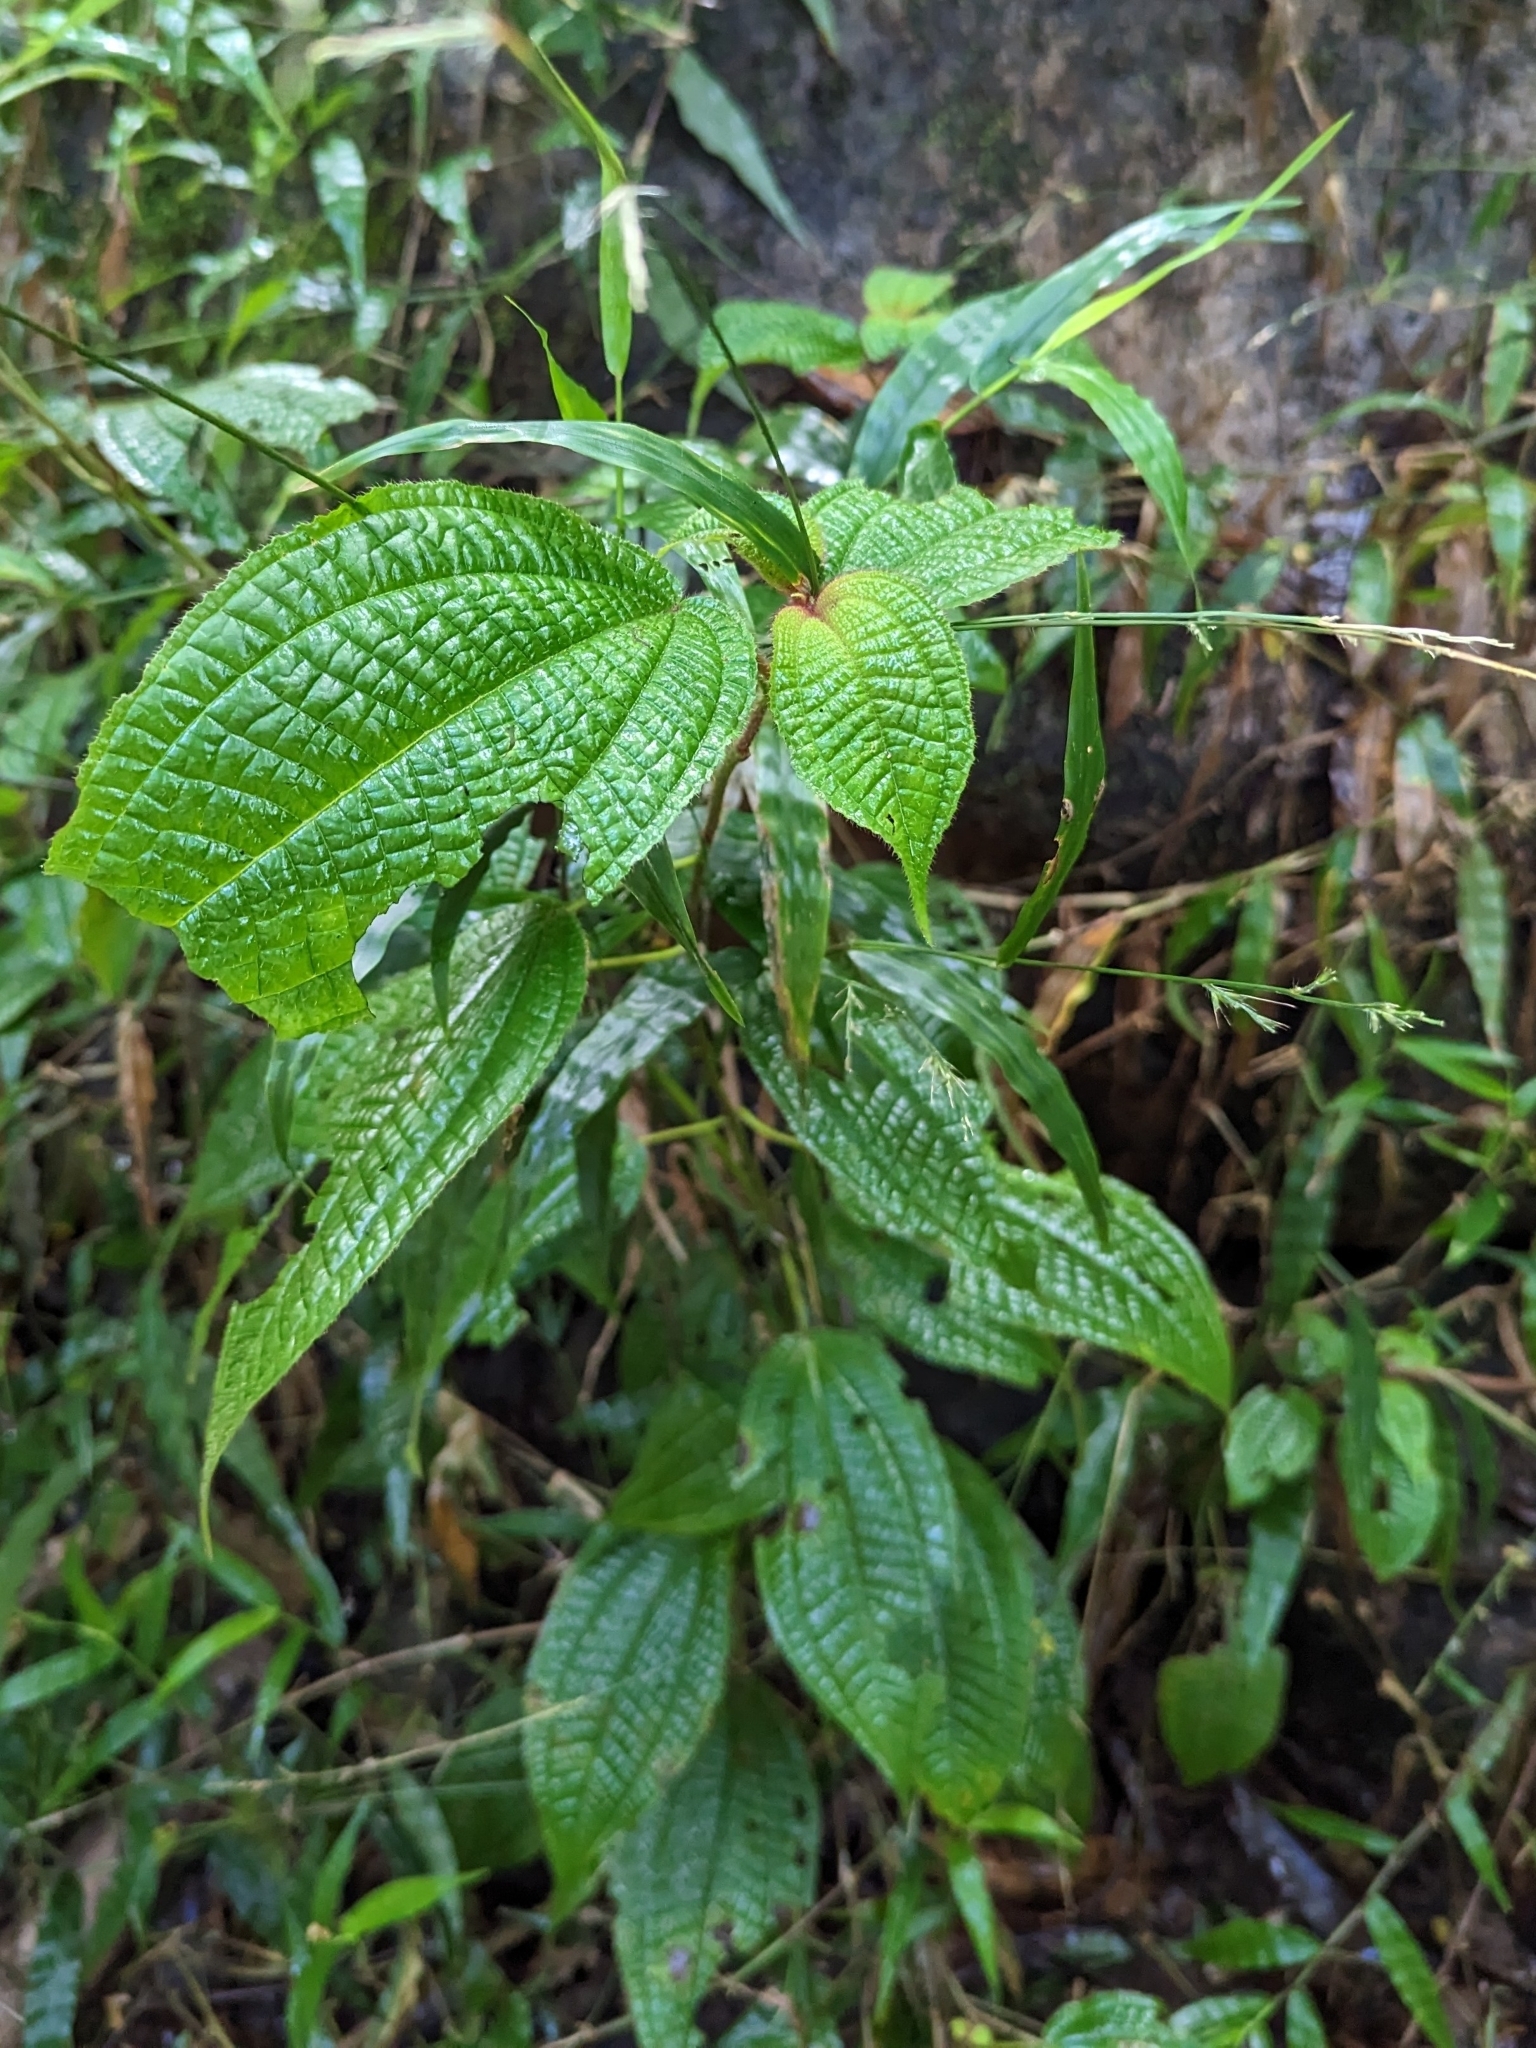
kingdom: Plantae
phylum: Tracheophyta
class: Magnoliopsida
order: Myrtales
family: Melastomataceae
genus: Miconia
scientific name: Miconia crenata
